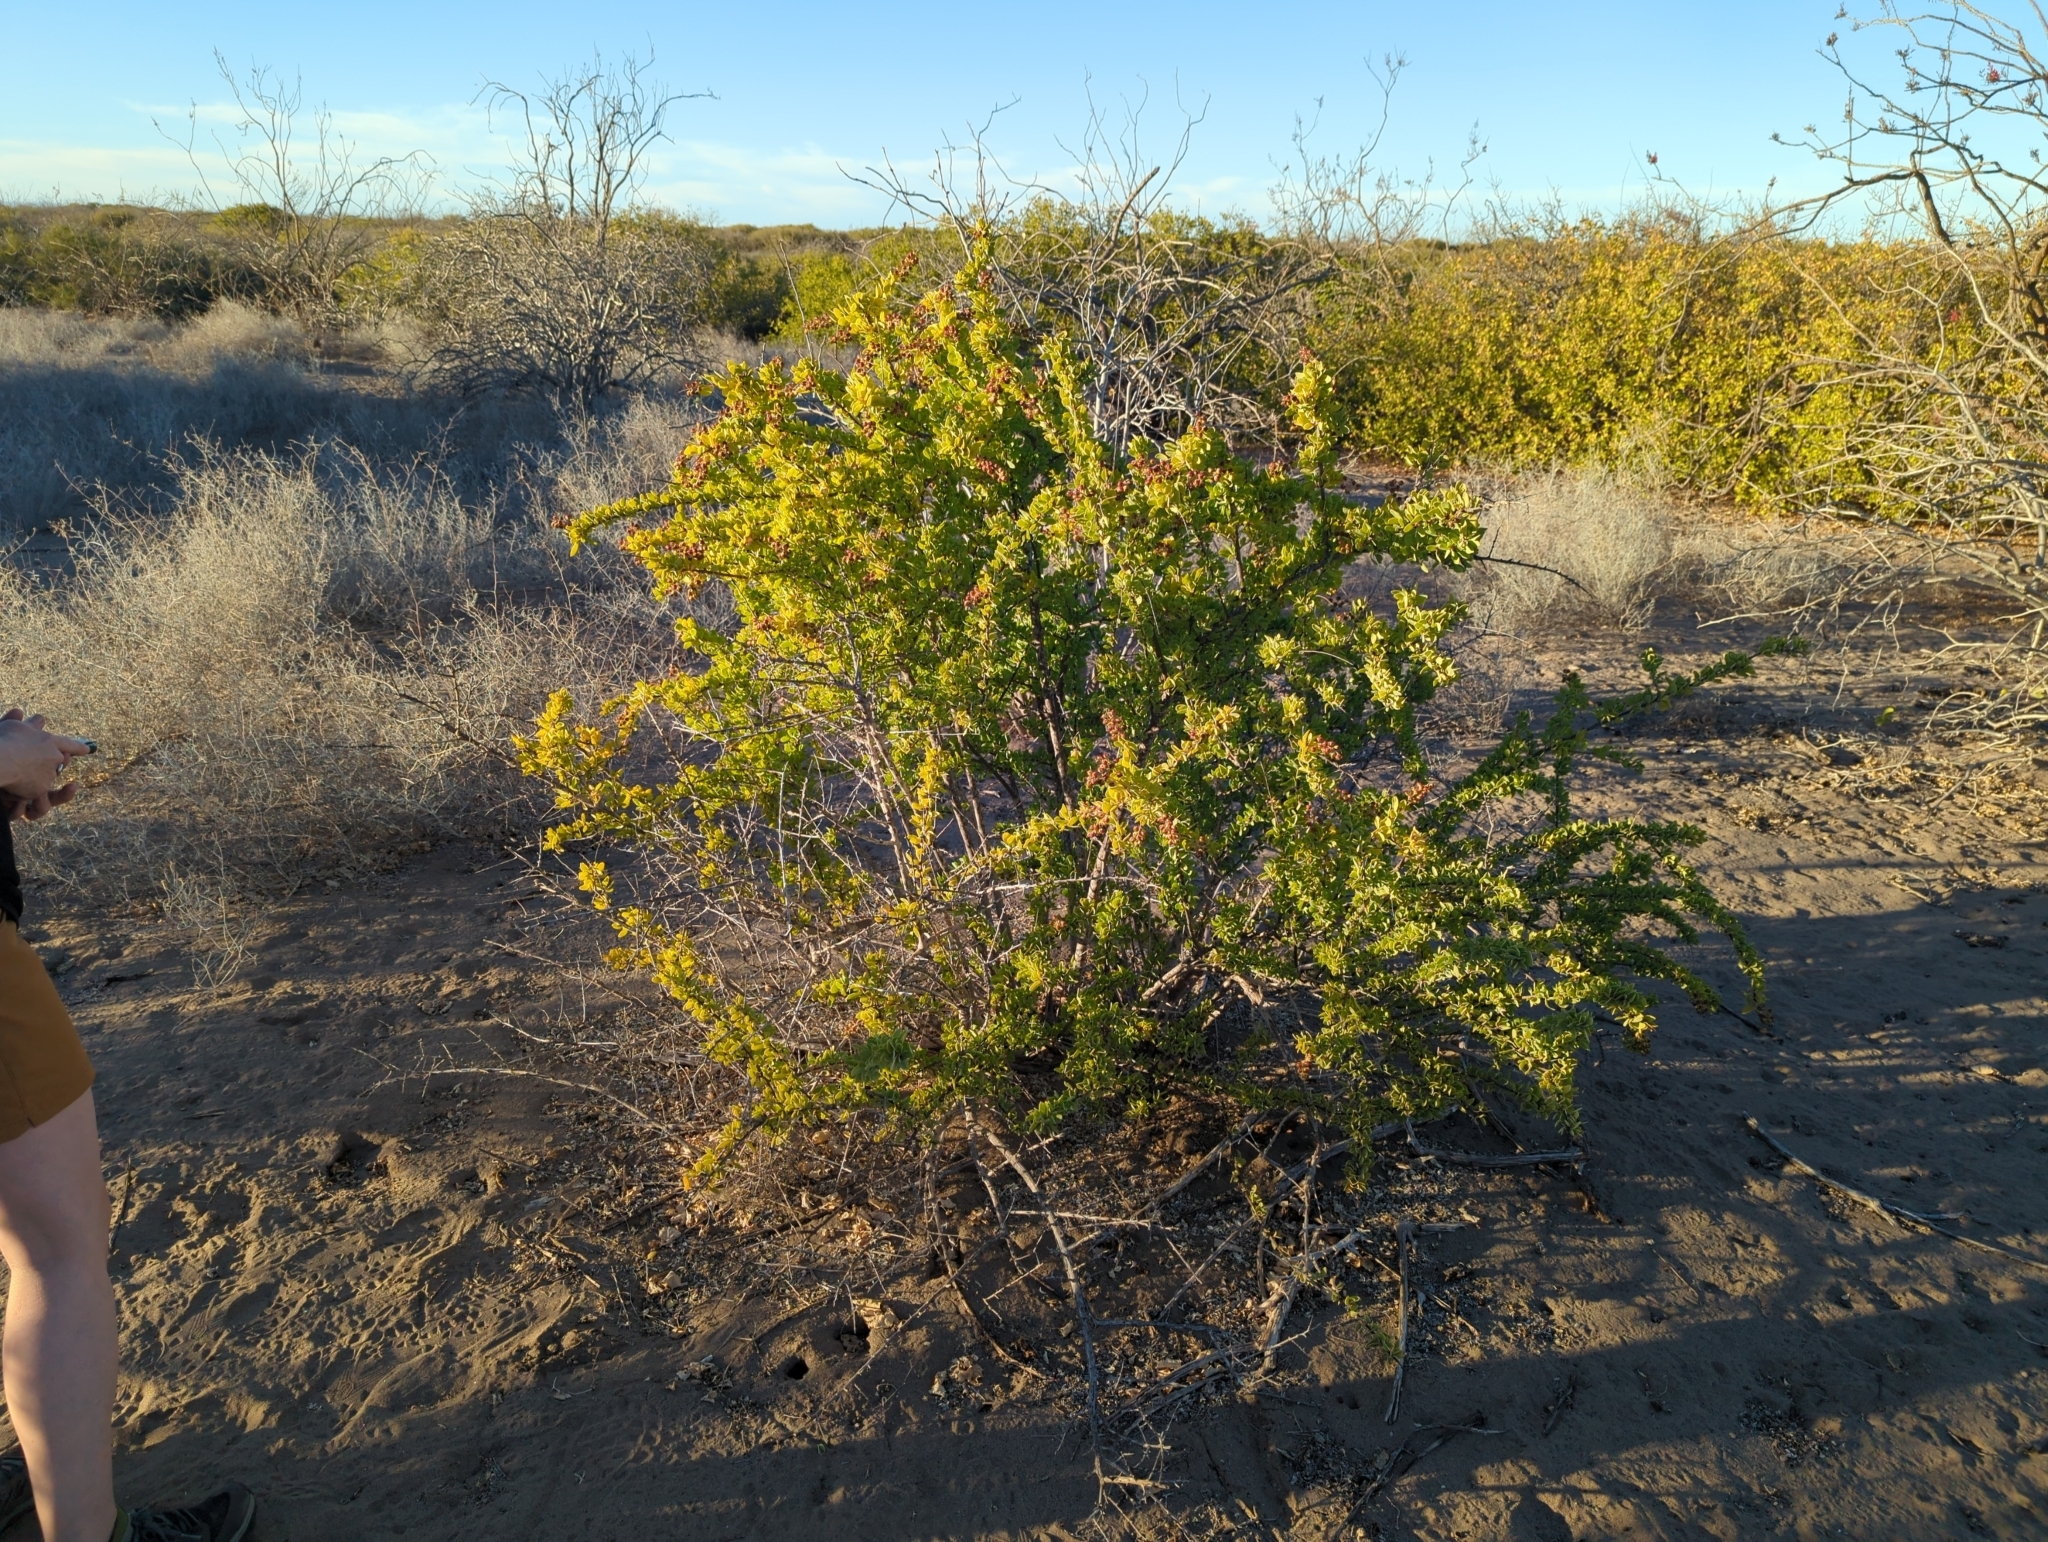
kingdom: Plantae
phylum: Tracheophyta
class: Magnoliopsida
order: Caryophyllales
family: Stegnospermataceae
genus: Stegnosperma
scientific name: Stegnosperma halimifolium
